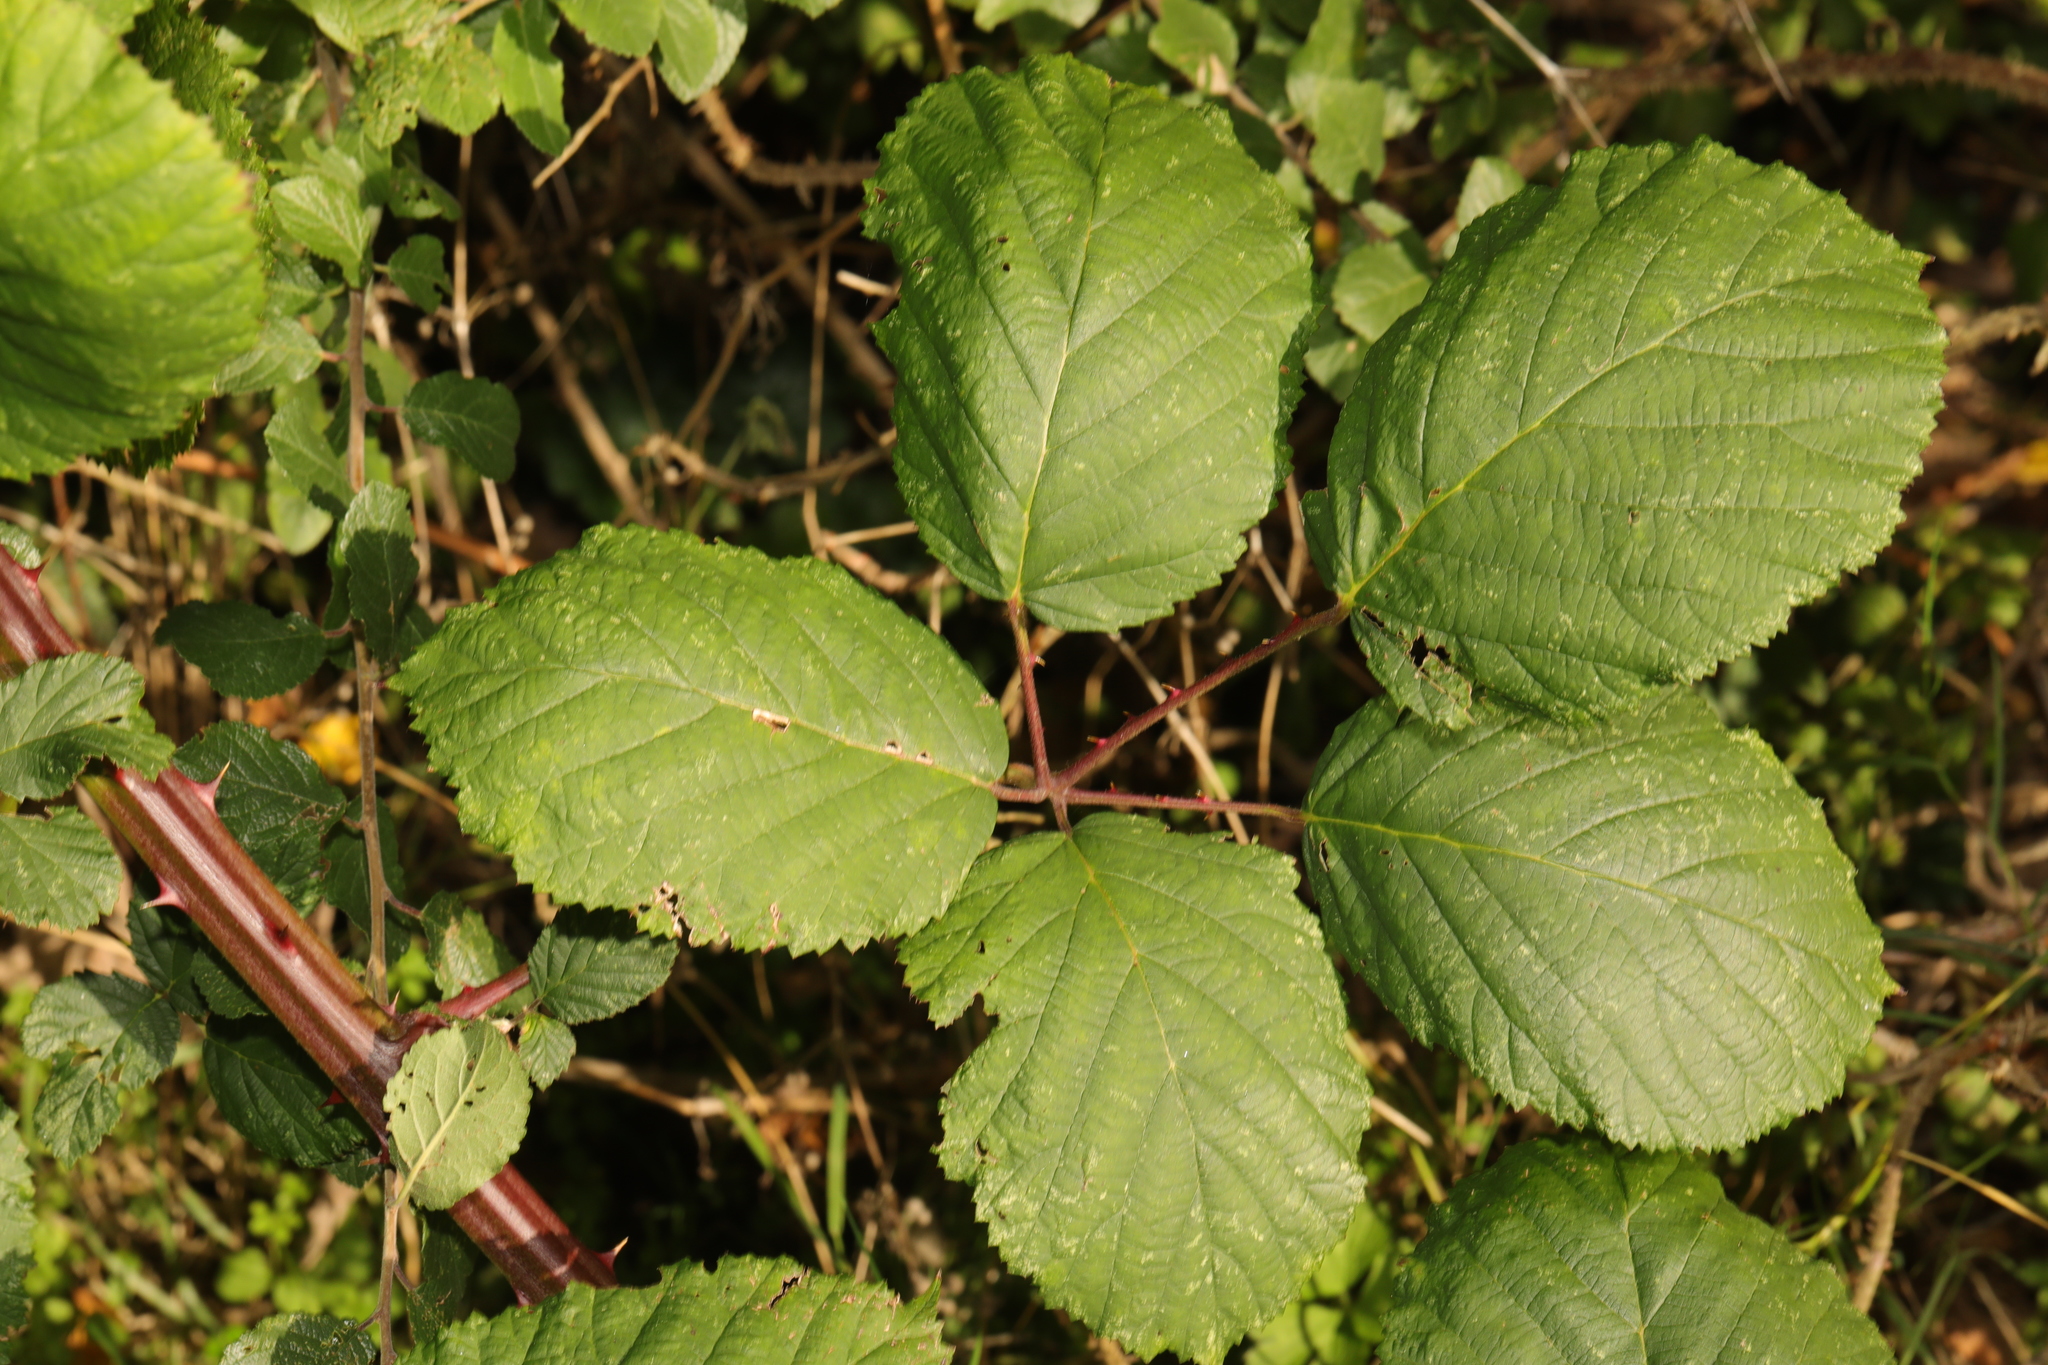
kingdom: Plantae
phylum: Tracheophyta
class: Magnoliopsida
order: Rosales
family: Rosaceae
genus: Rubus
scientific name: Rubus armeniacus
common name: Himalayan blackberry
